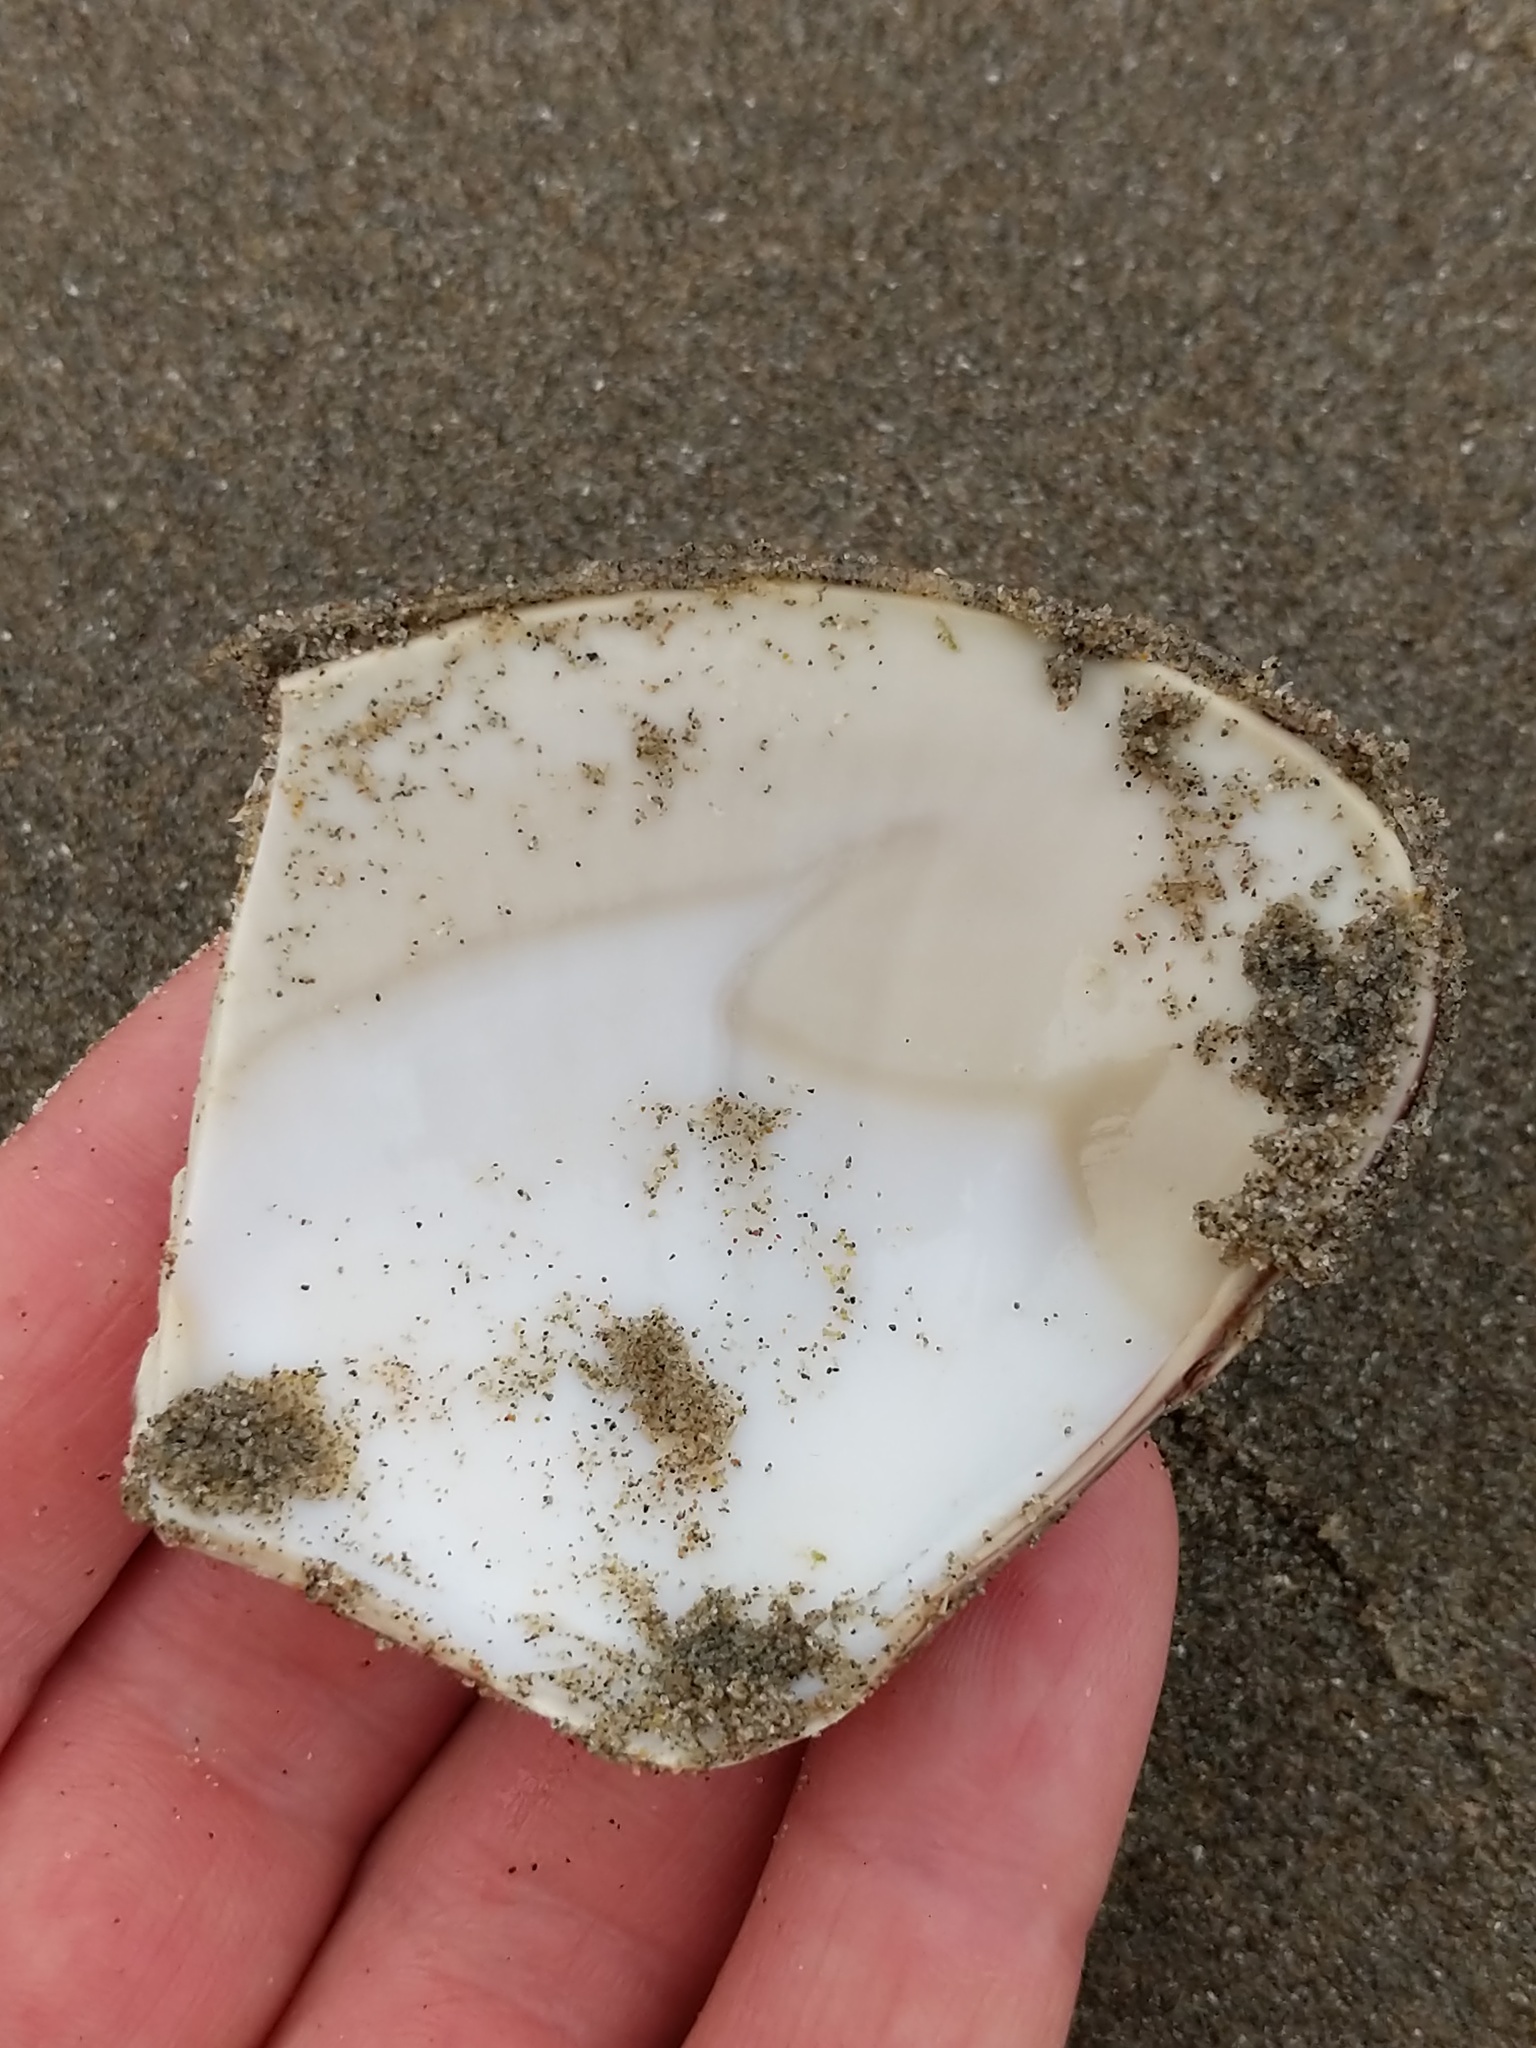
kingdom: Animalia
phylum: Mollusca
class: Bivalvia
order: Venerida
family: Veneridae
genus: Tivela
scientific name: Tivela stultorum
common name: Pismo clam
